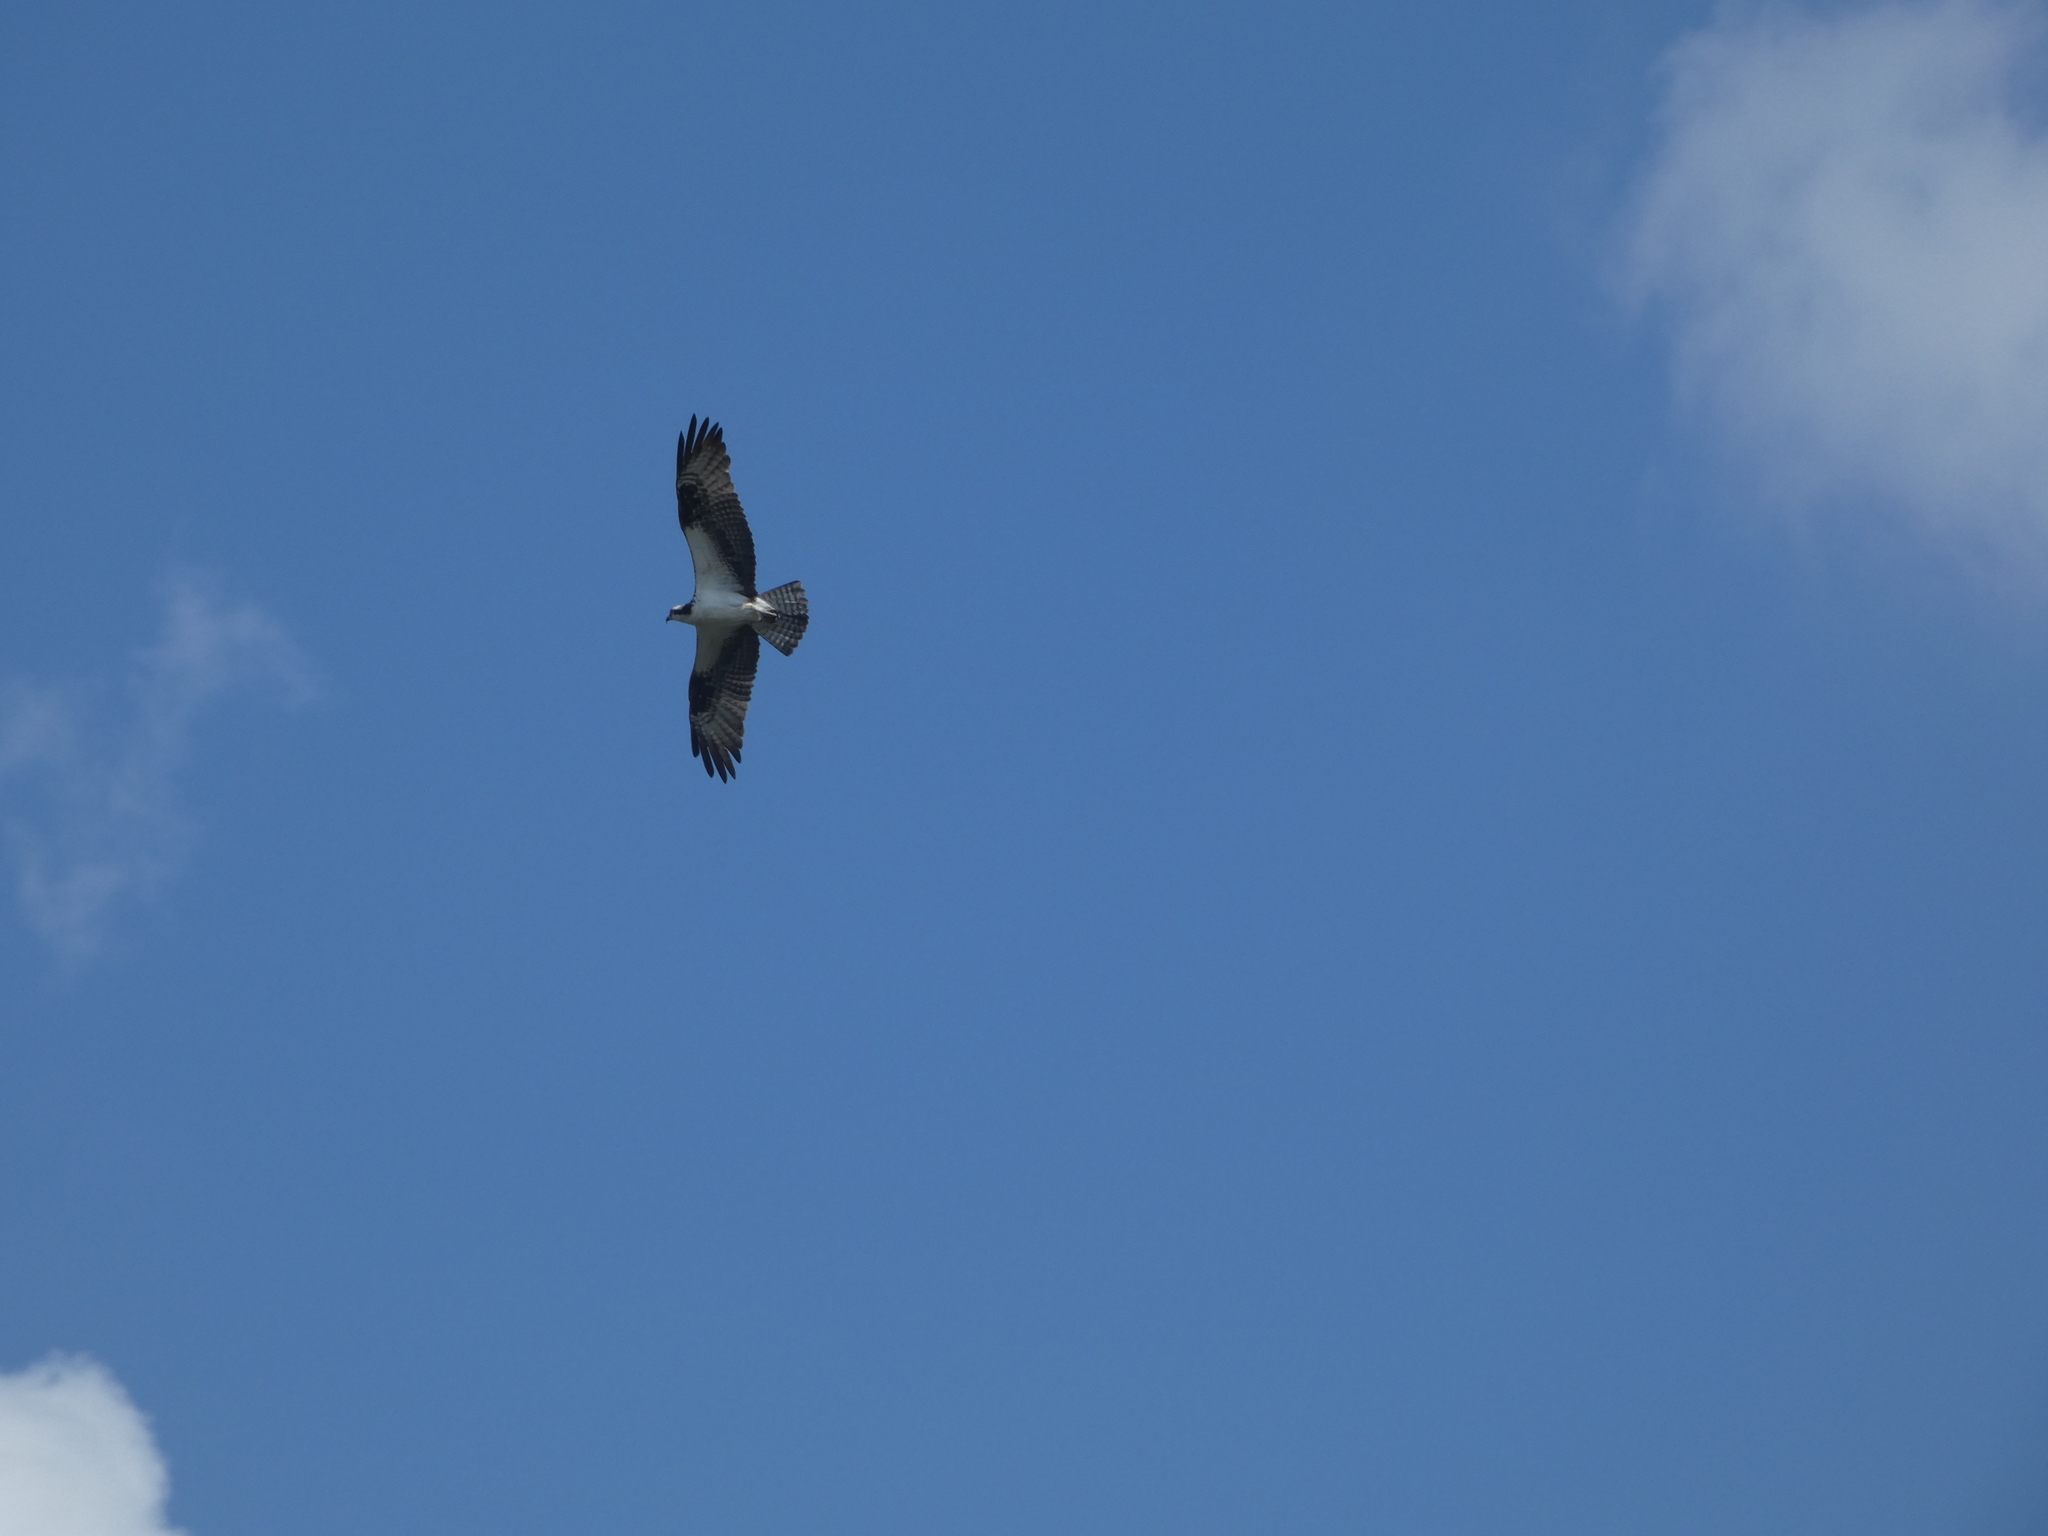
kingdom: Animalia
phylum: Chordata
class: Aves
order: Accipitriformes
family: Pandionidae
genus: Pandion
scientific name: Pandion haliaetus
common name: Osprey
